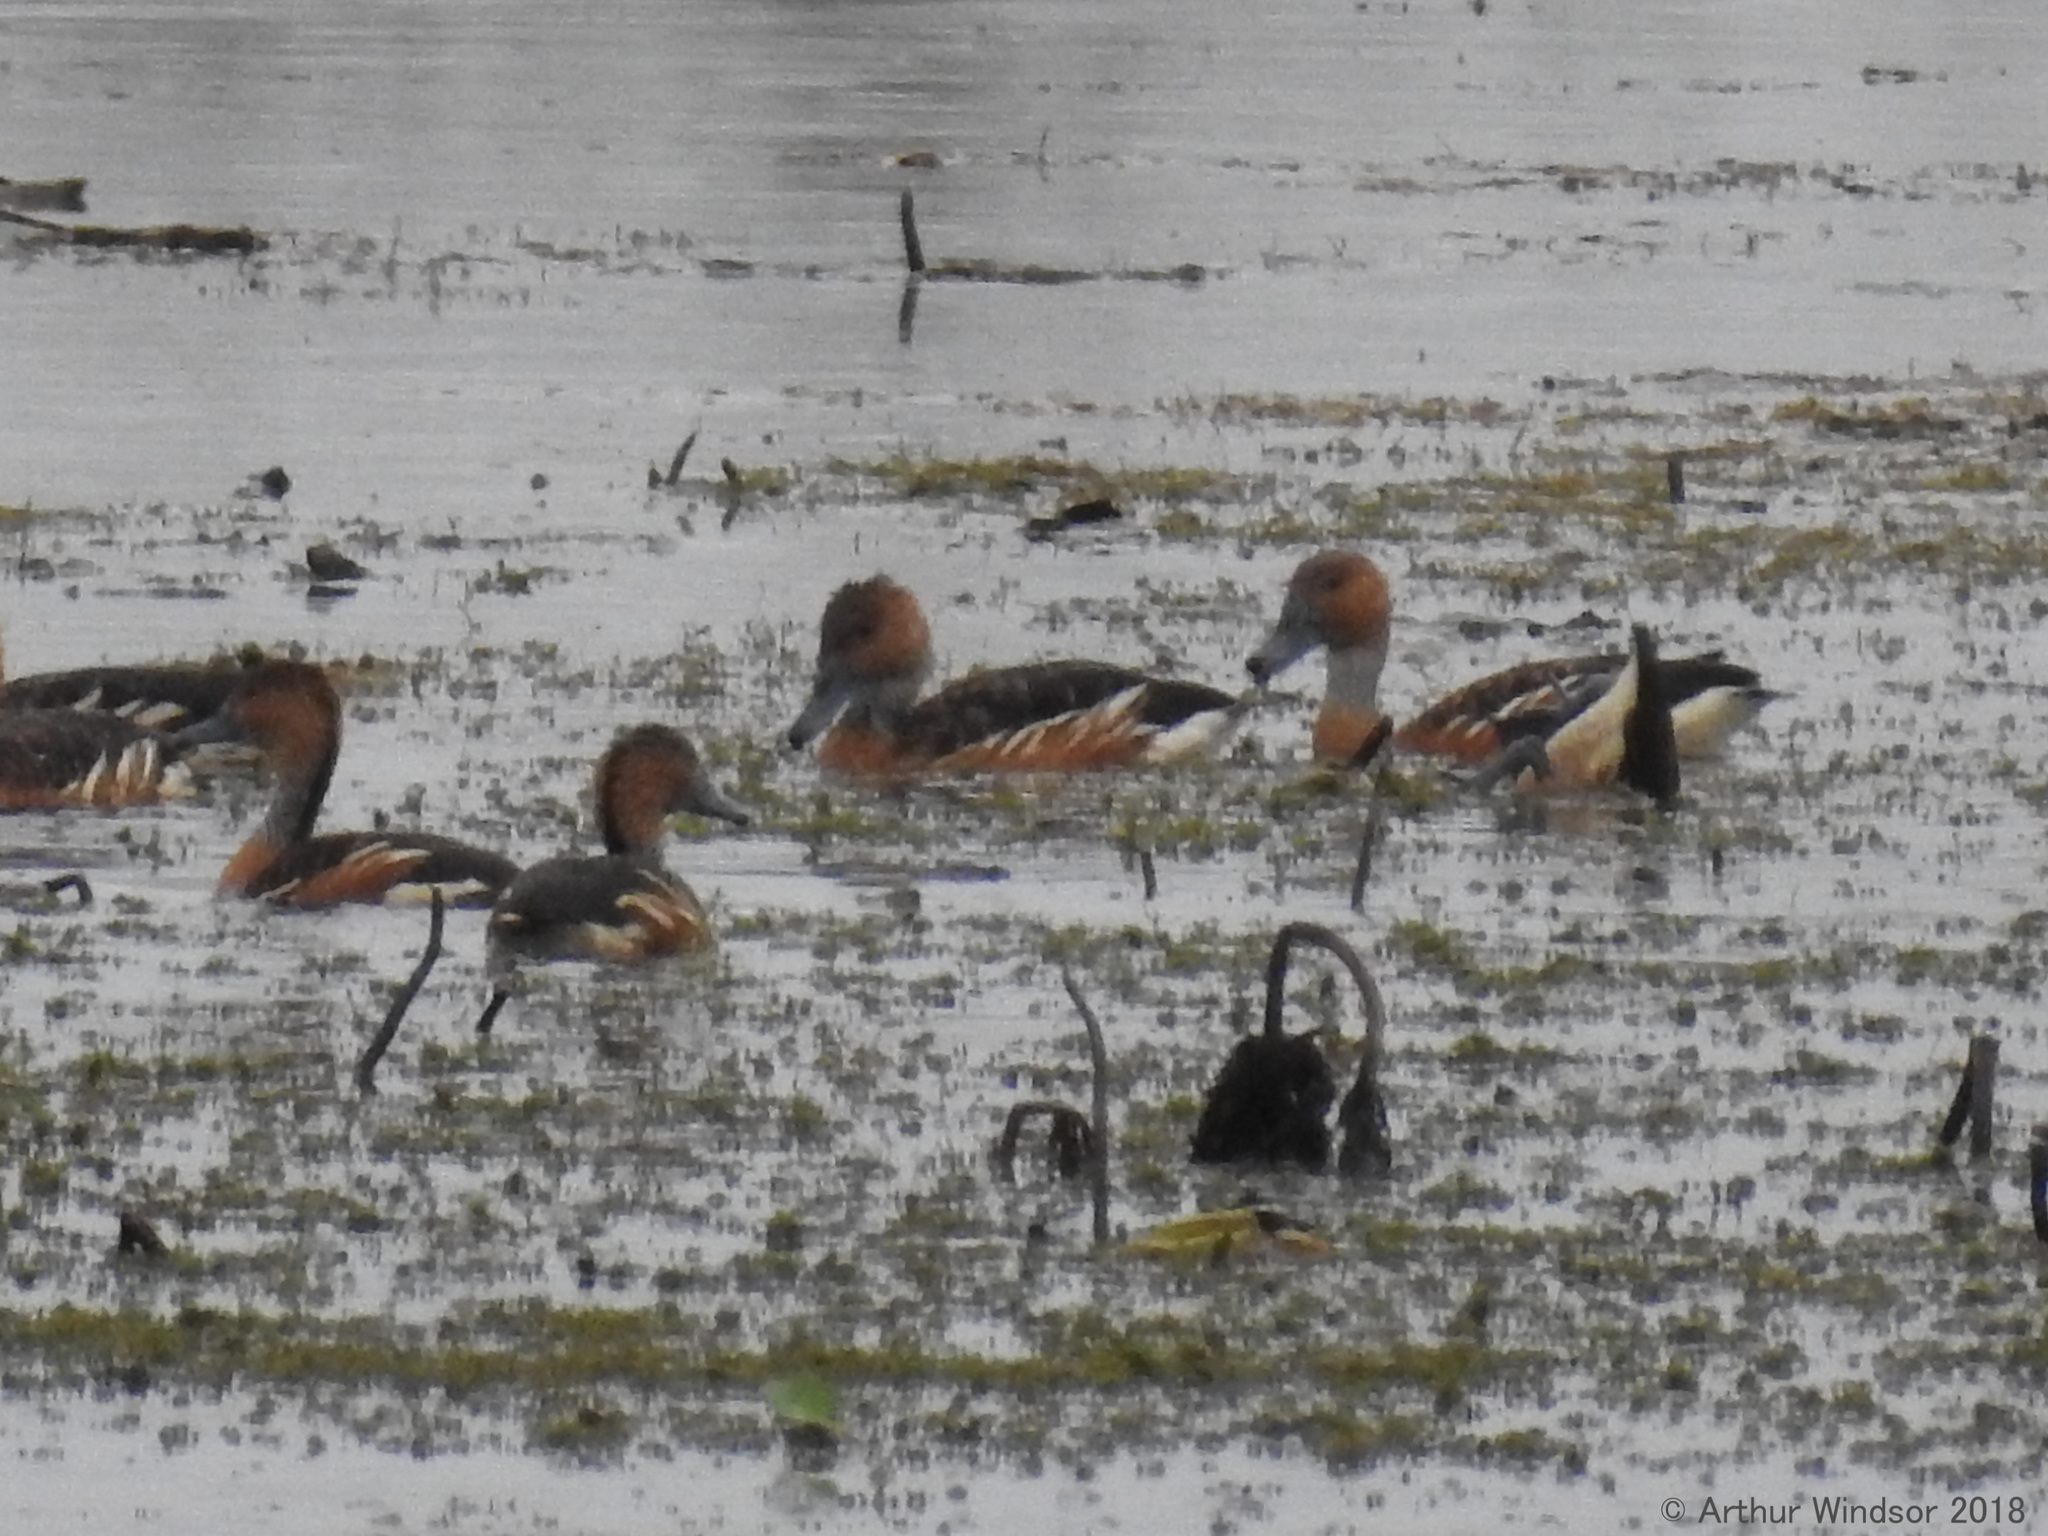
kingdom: Animalia
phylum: Chordata
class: Aves
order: Anseriformes
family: Anatidae
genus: Dendrocygna
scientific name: Dendrocygna bicolor
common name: Fulvous whistling duck
